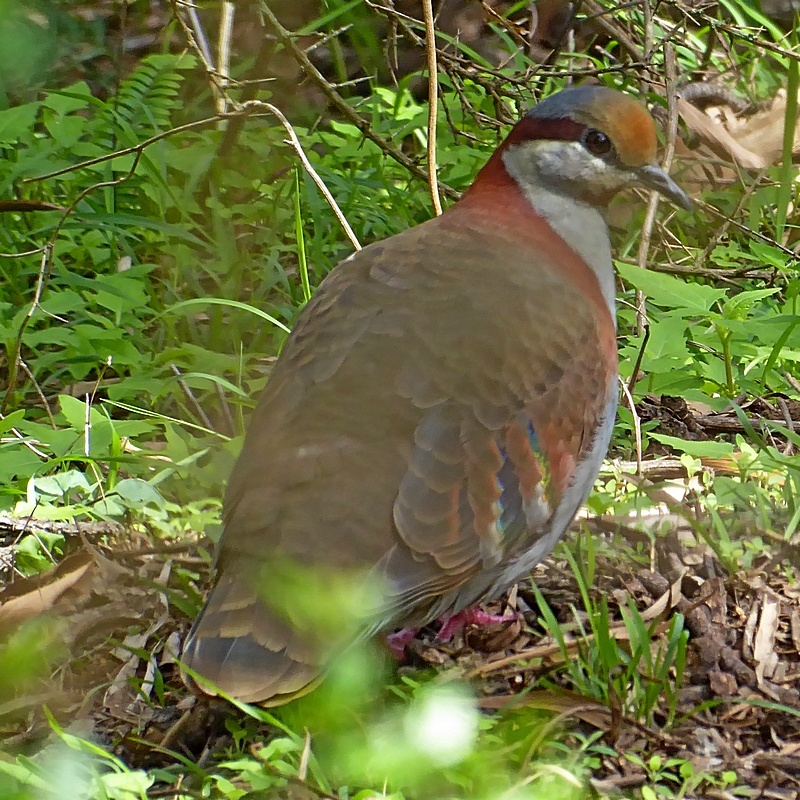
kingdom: Animalia
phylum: Chordata
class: Aves
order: Columbiformes
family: Columbidae
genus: Phaps
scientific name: Phaps elegans
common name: Brush bronzewing
